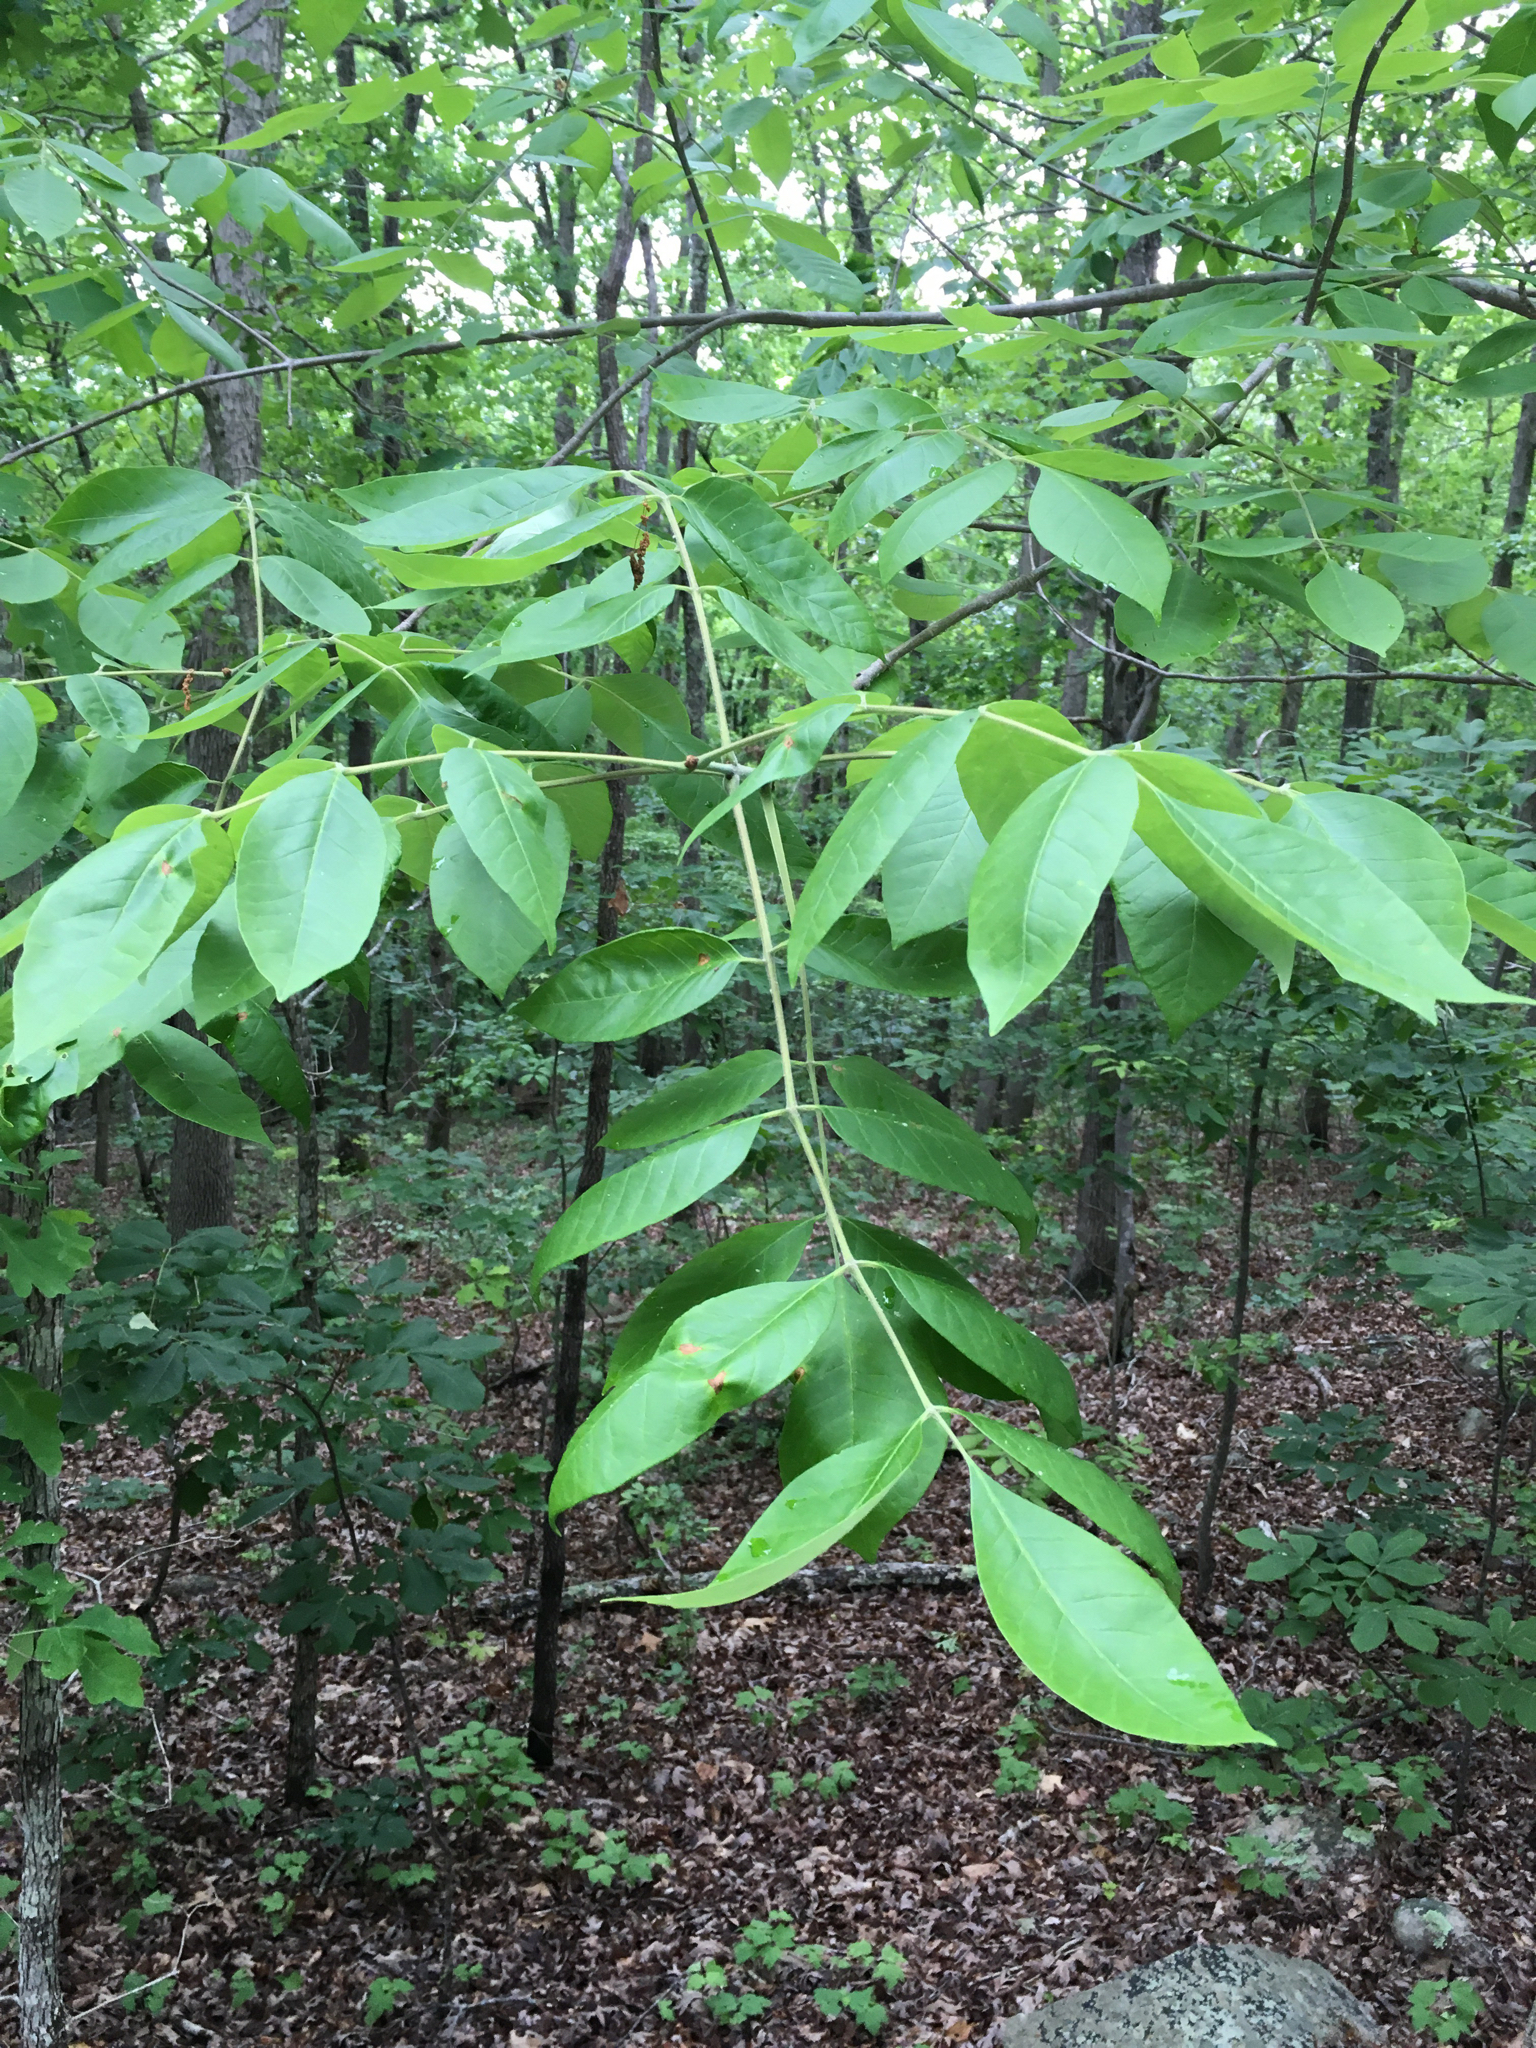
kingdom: Plantae
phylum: Tracheophyta
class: Magnoliopsida
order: Lamiales
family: Oleaceae
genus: Fraxinus
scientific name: Fraxinus americana
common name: White ash
